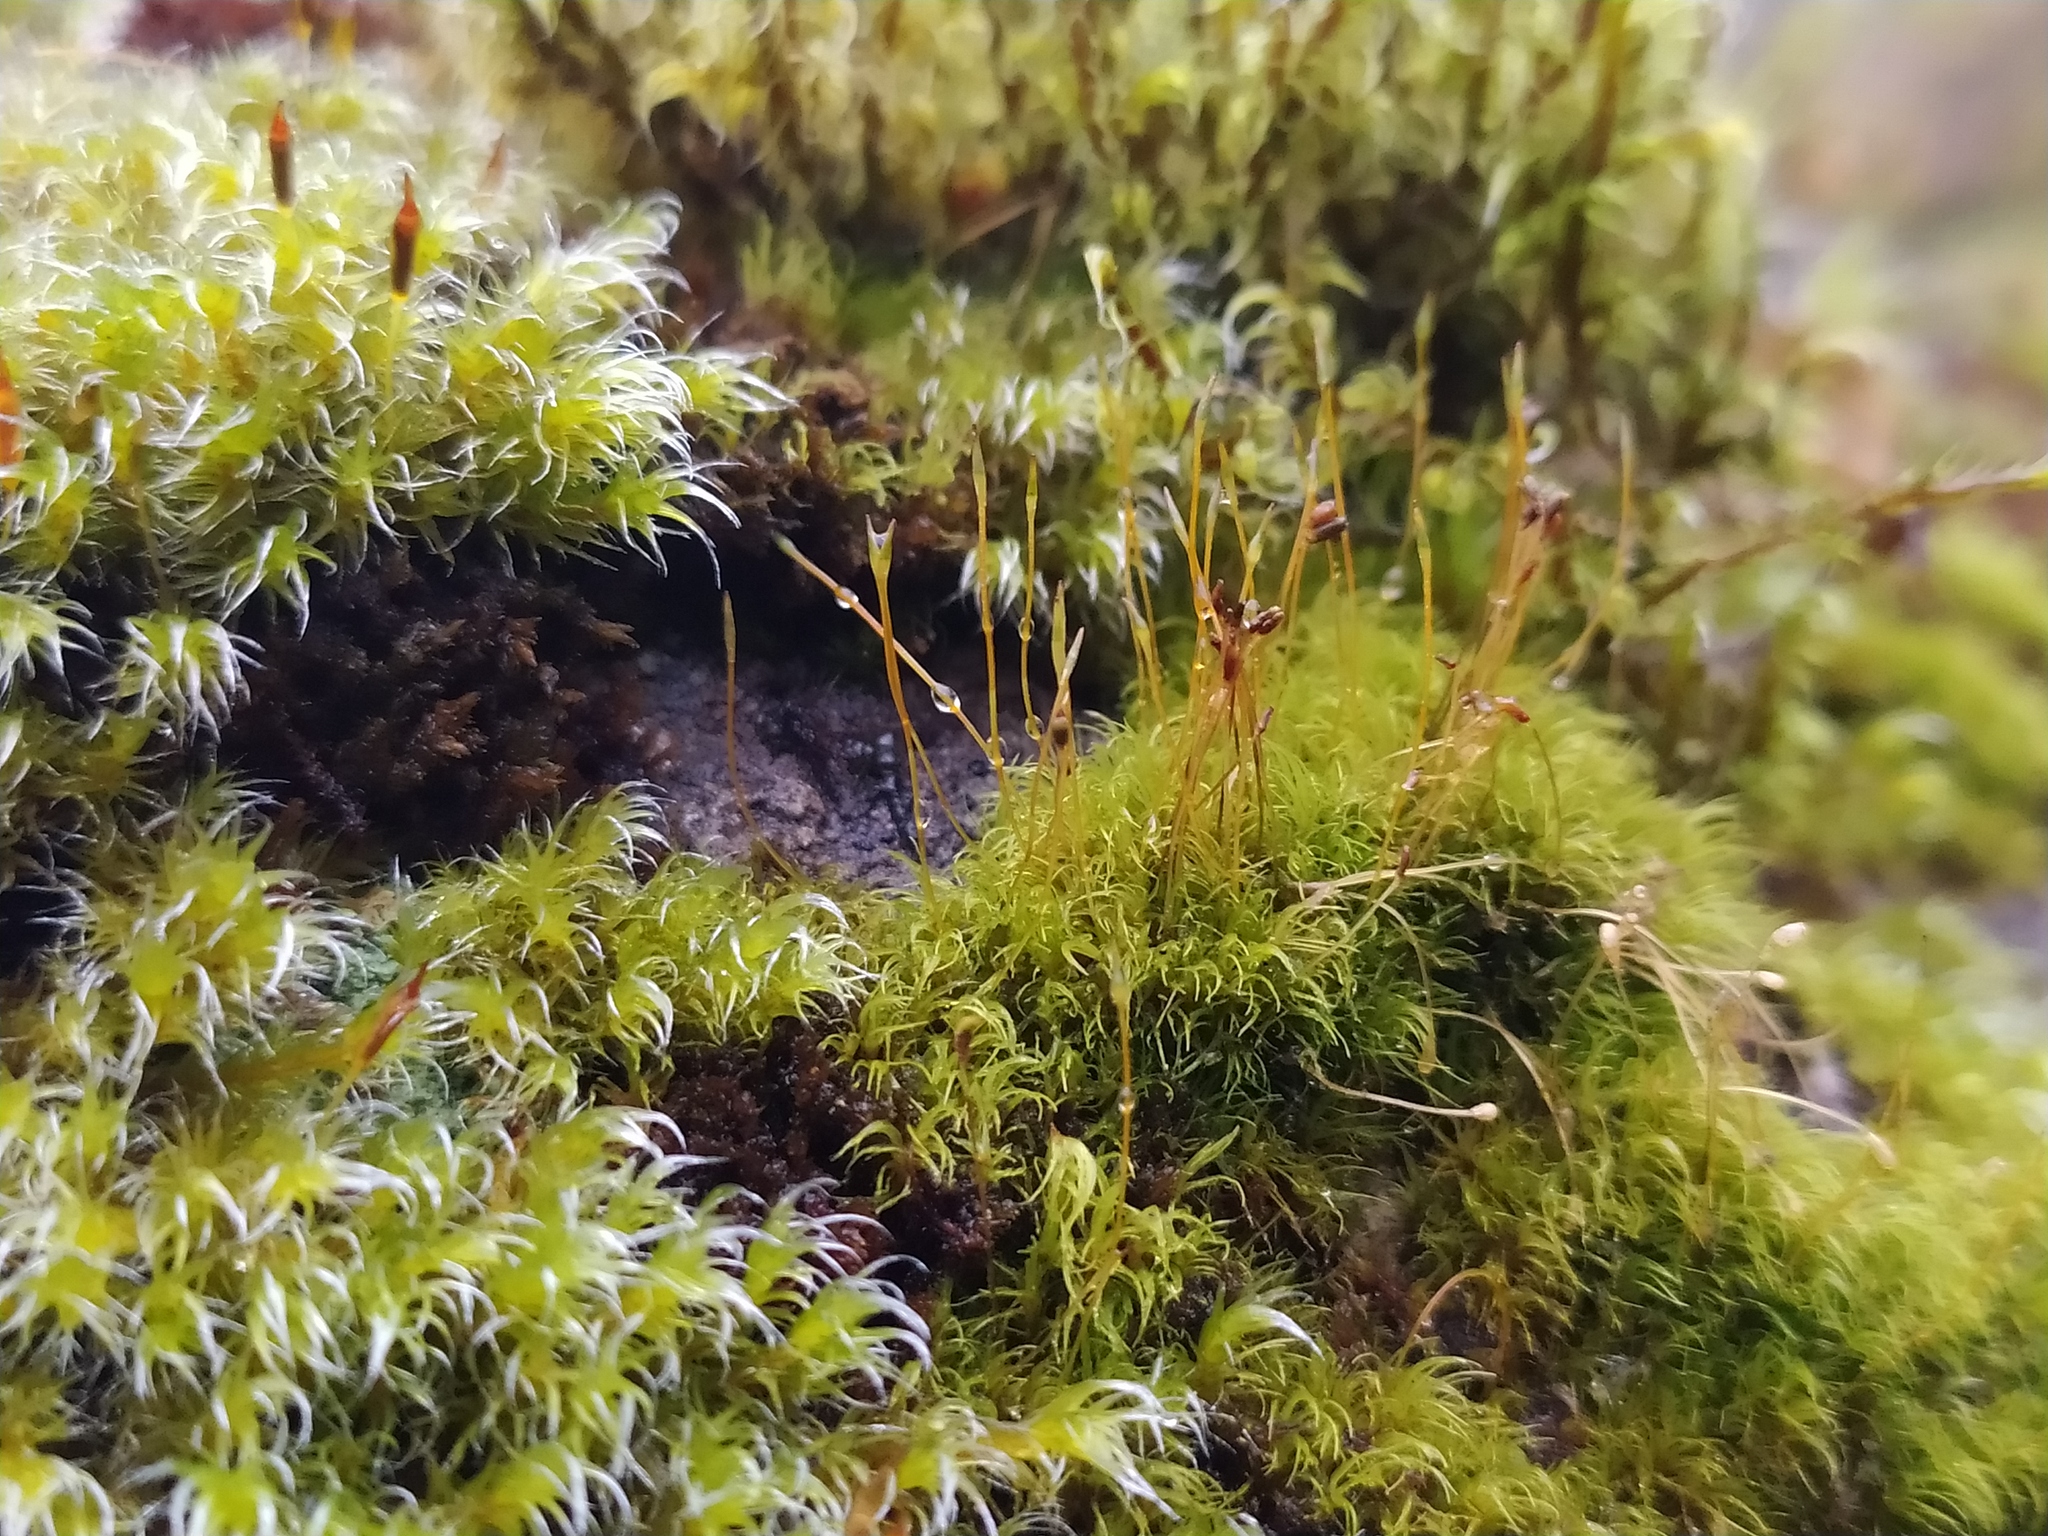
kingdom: Plantae
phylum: Bryophyta
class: Bryopsida
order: Dicranales
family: Rhabdoweisiaceae
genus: Arctoa
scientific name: Arctoa blyttii
